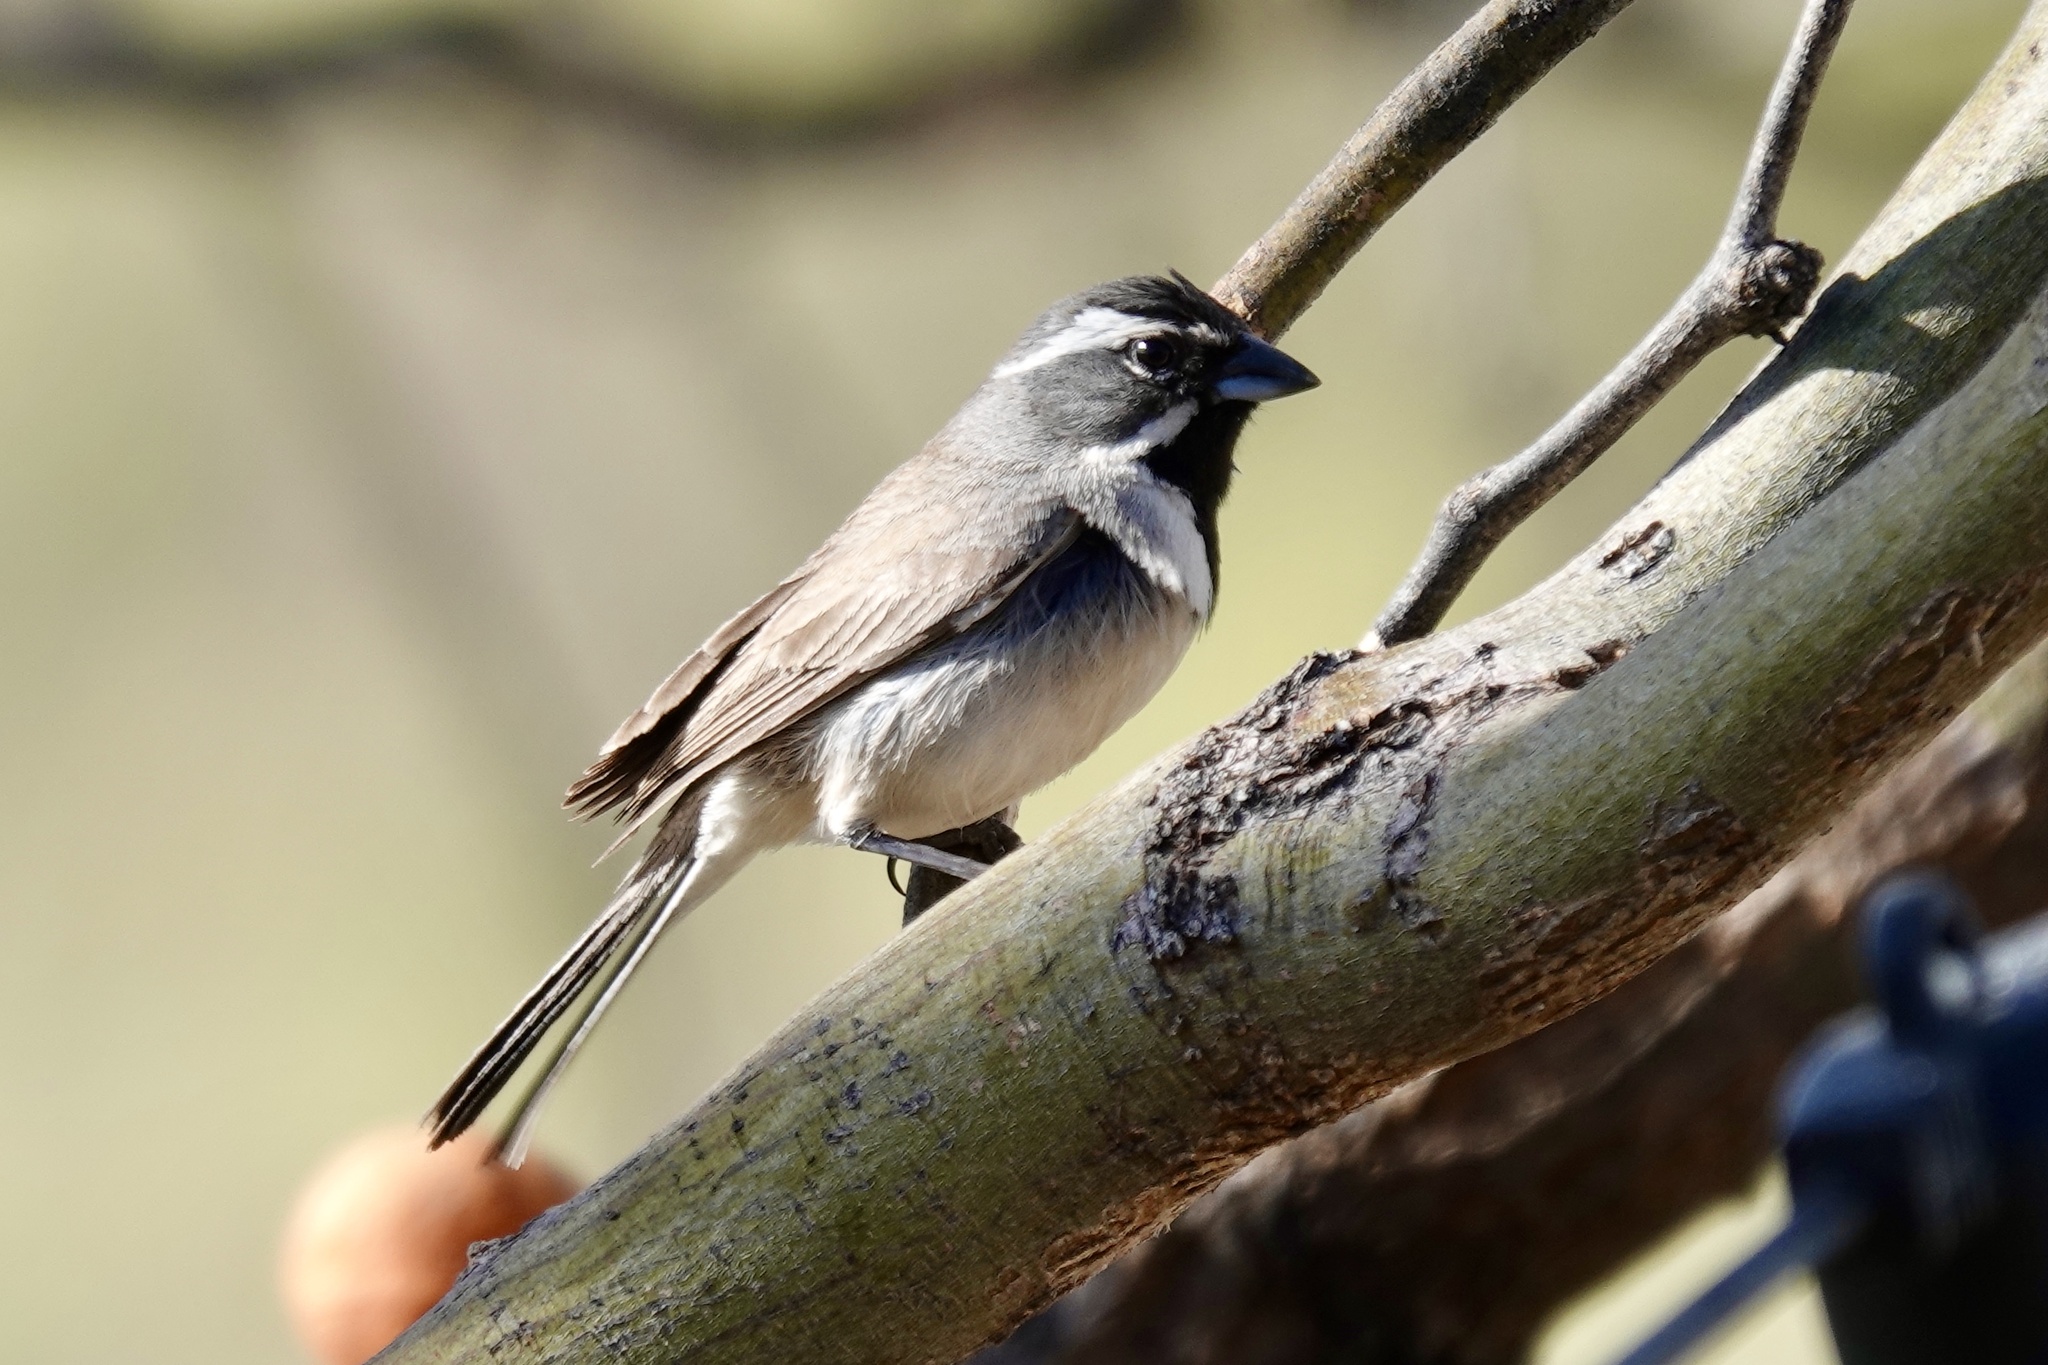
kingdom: Animalia
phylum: Chordata
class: Aves
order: Passeriformes
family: Passerellidae
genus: Amphispiza
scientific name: Amphispiza bilineata
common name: Black-throated sparrow
